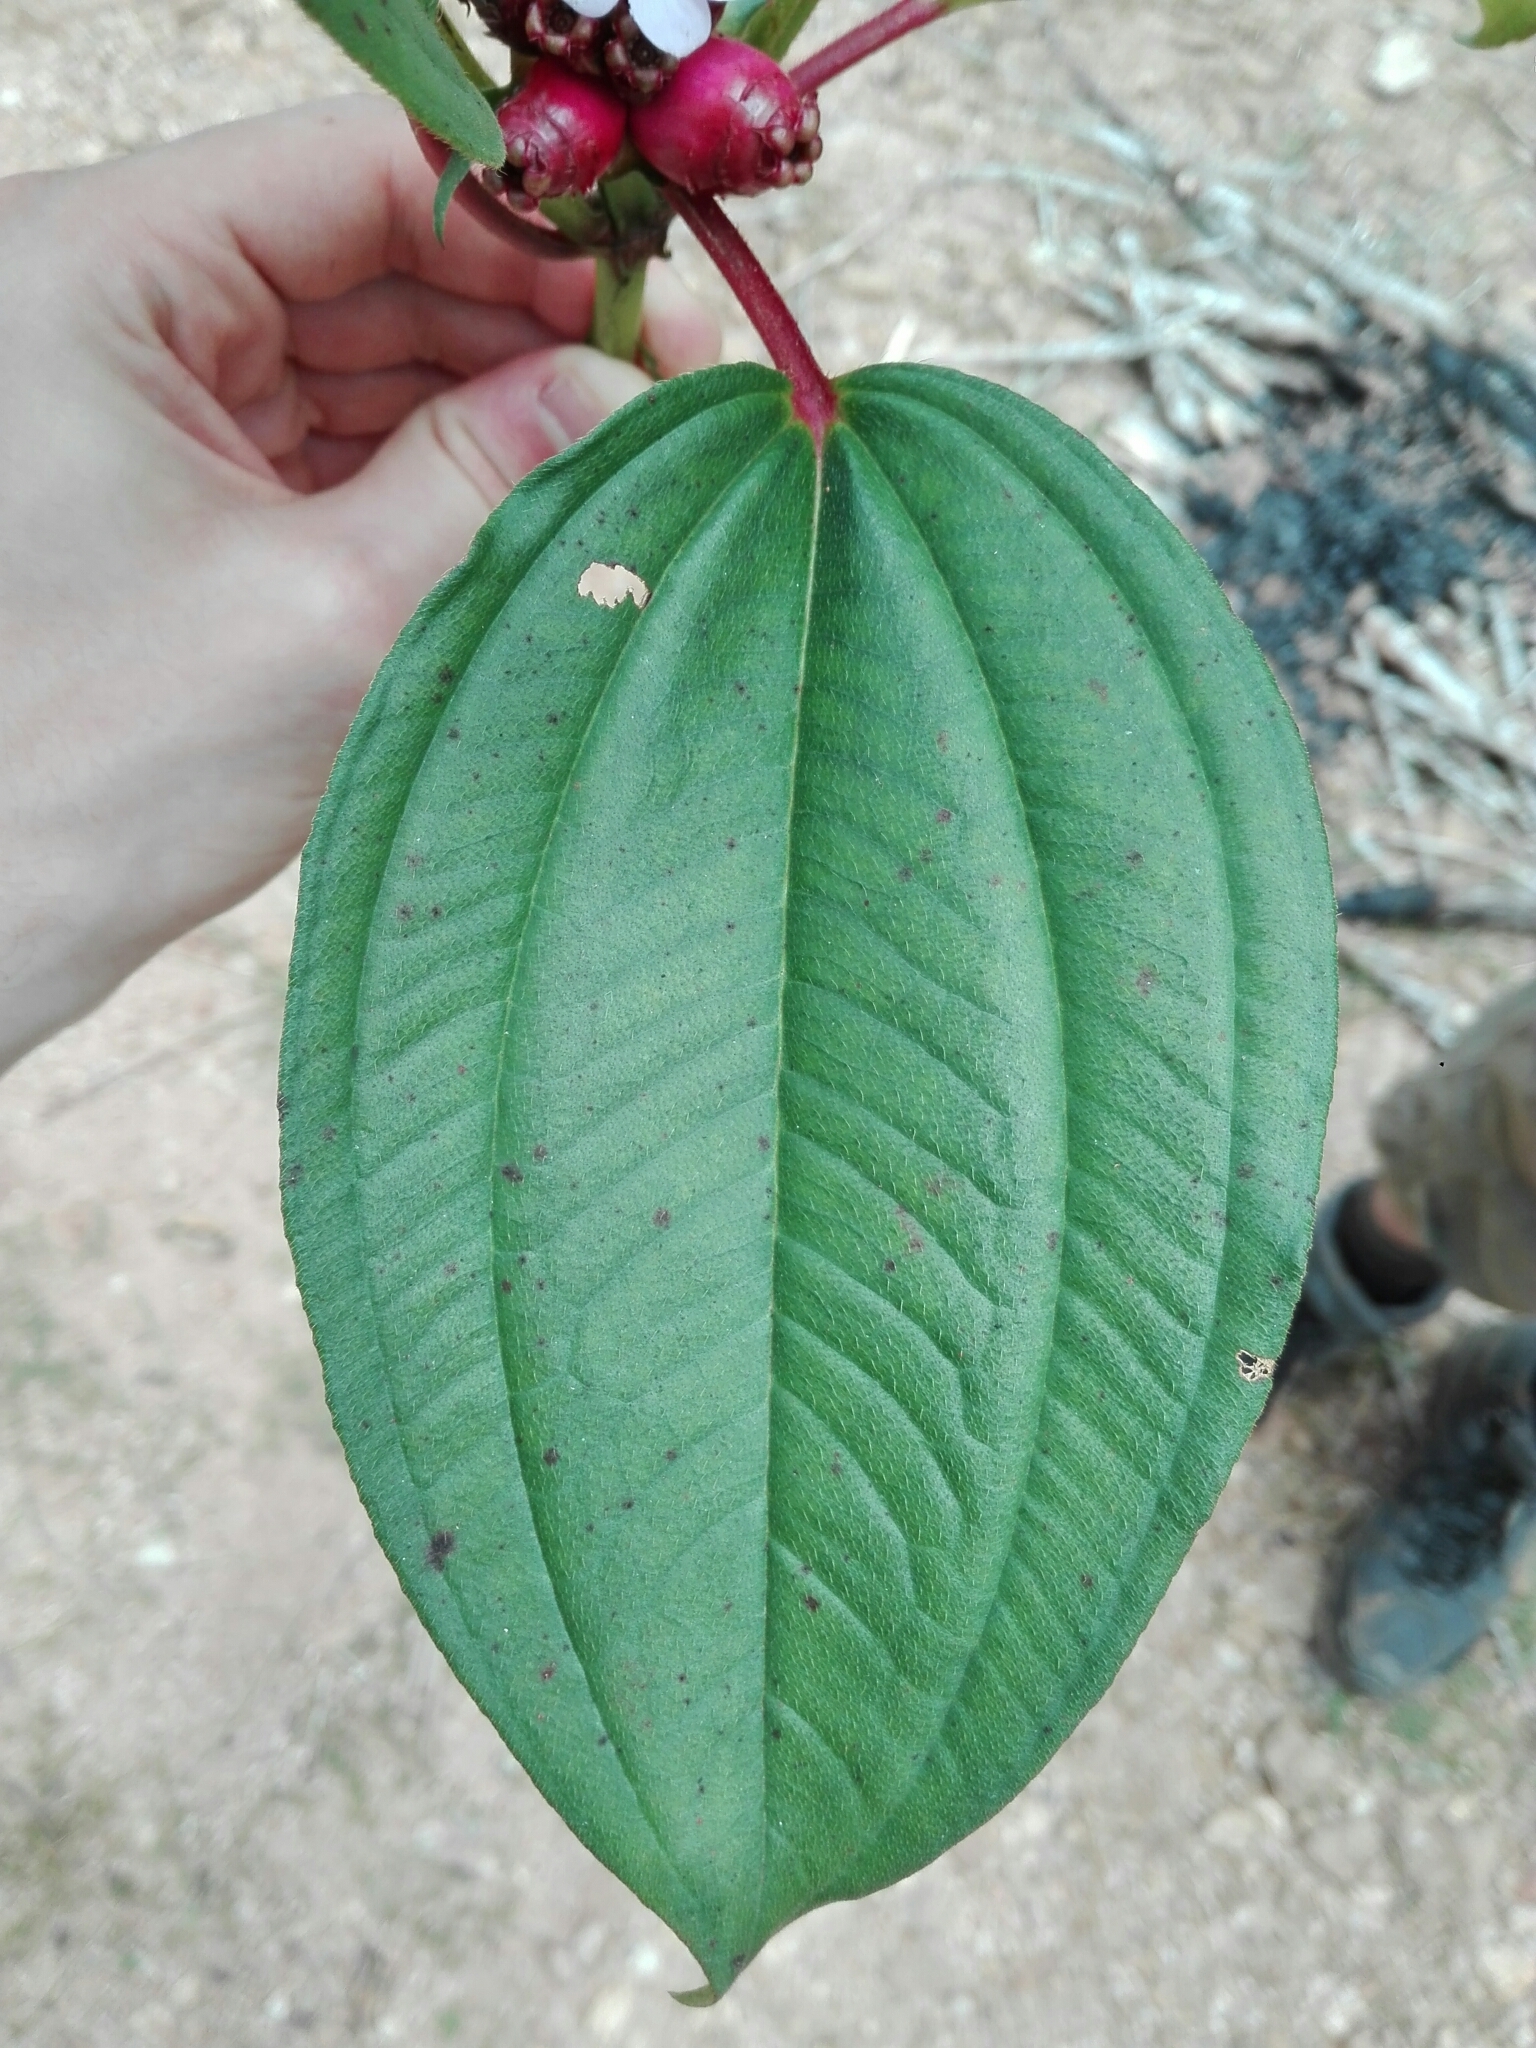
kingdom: Plantae
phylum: Tracheophyta
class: Magnoliopsida
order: Myrtales
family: Melastomataceae
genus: Tristemma
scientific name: Tristemma mauritianum
